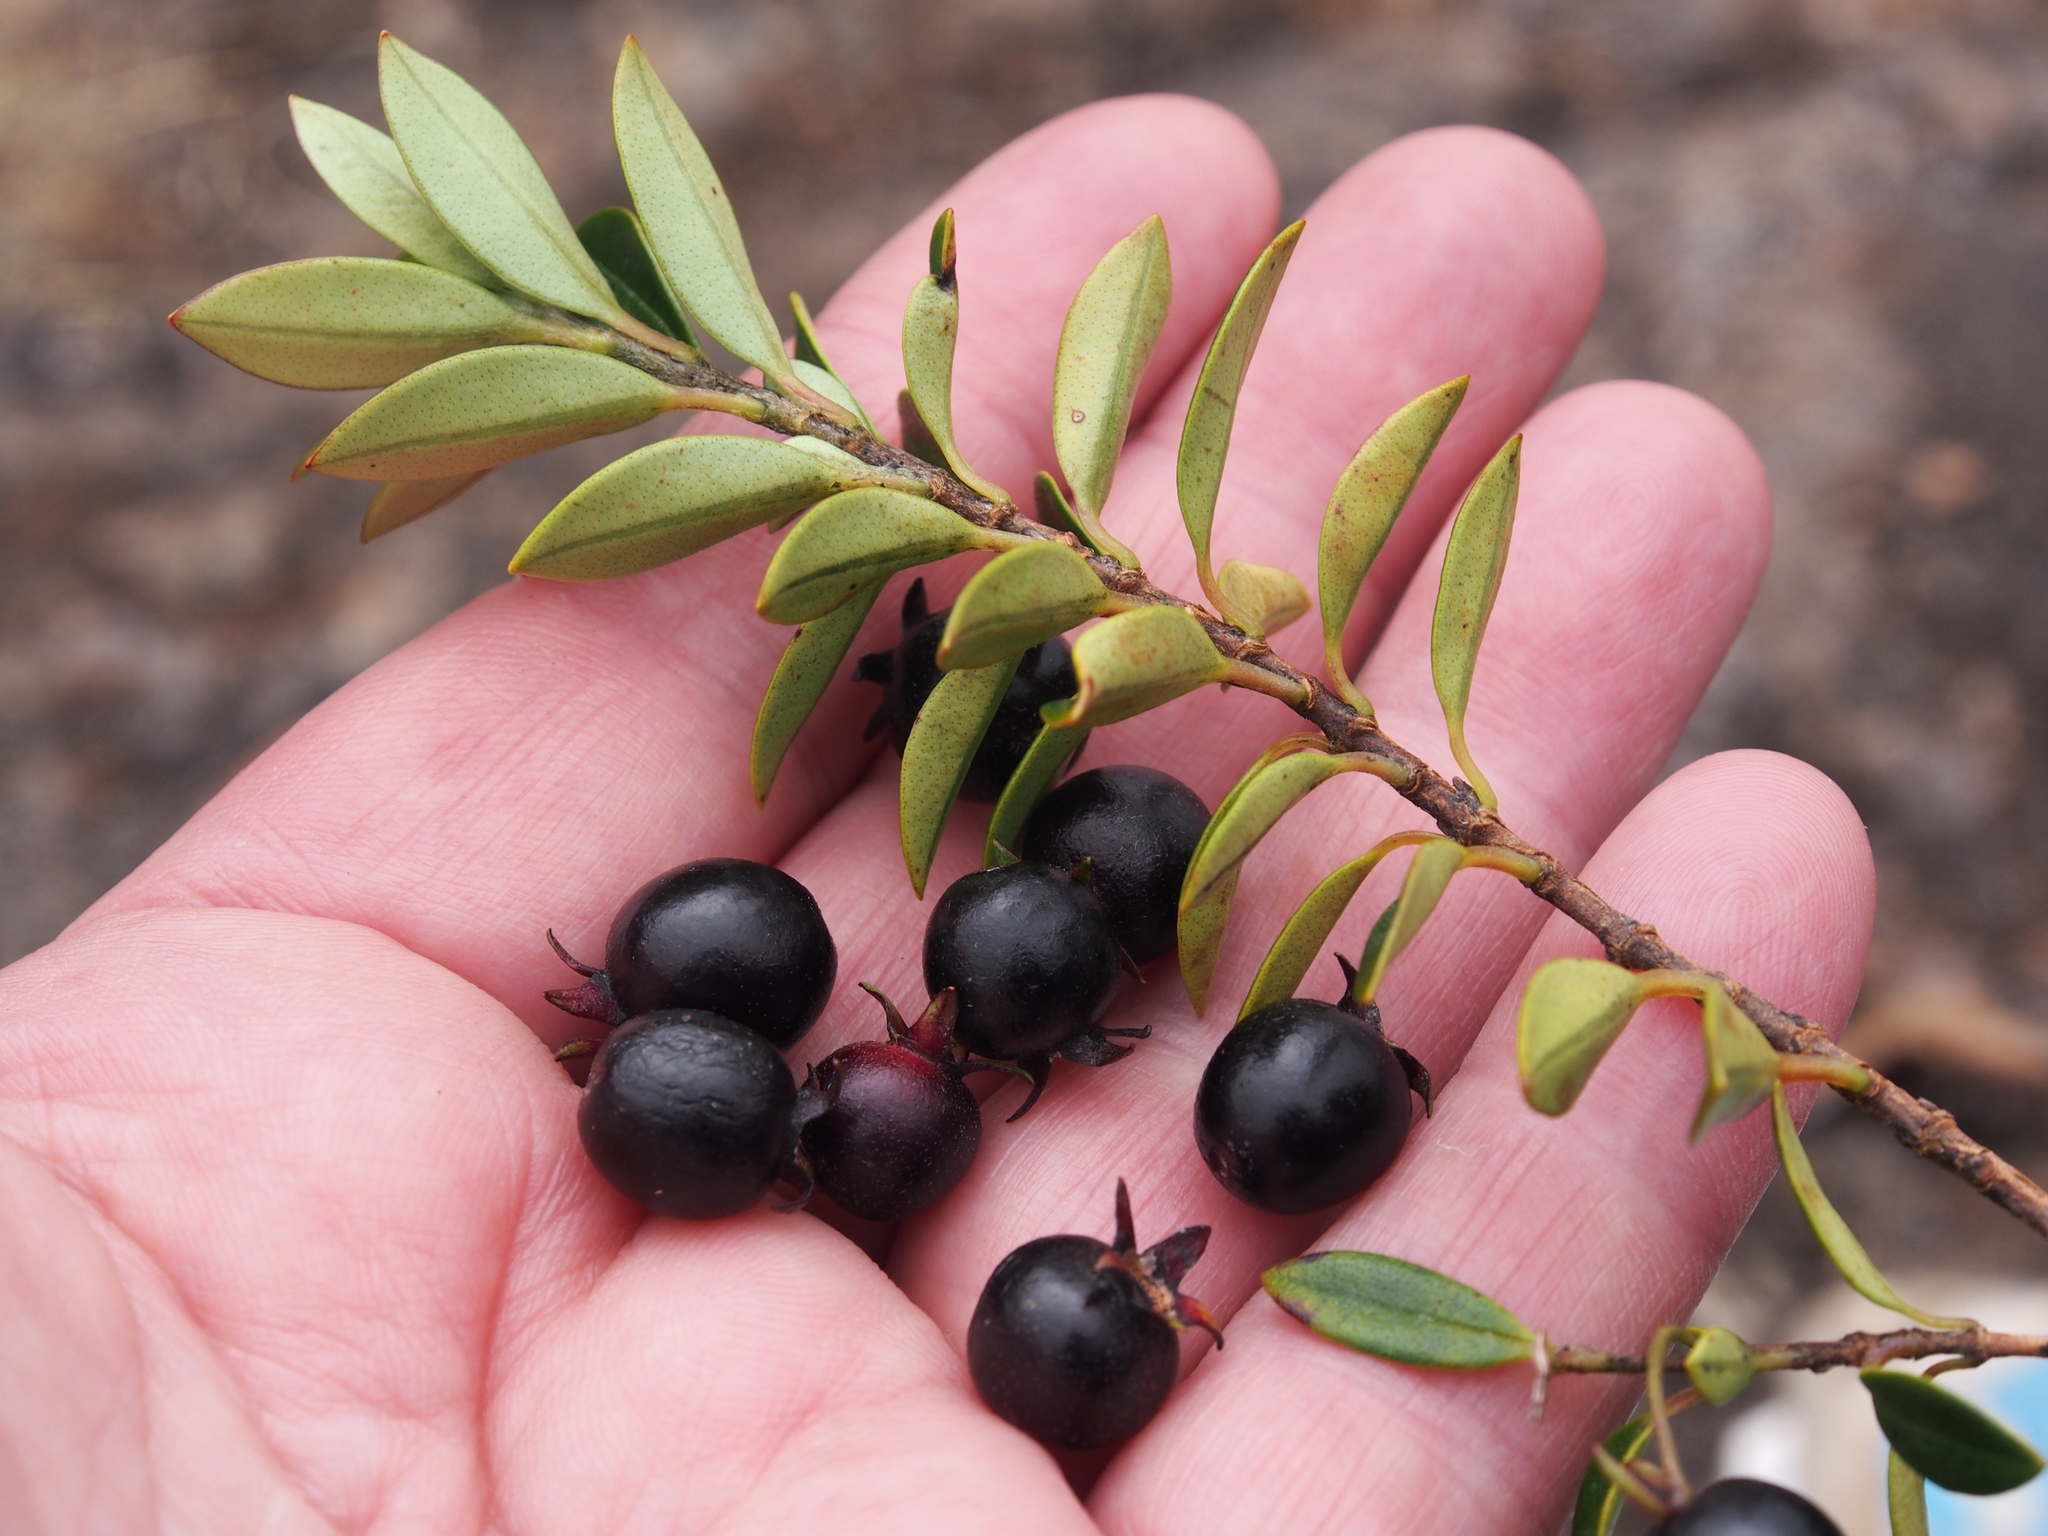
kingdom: Plantae
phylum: Tracheophyta
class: Magnoliopsida
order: Myrtales
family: Myrtaceae
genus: Ugni
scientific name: Ugni myricoides
